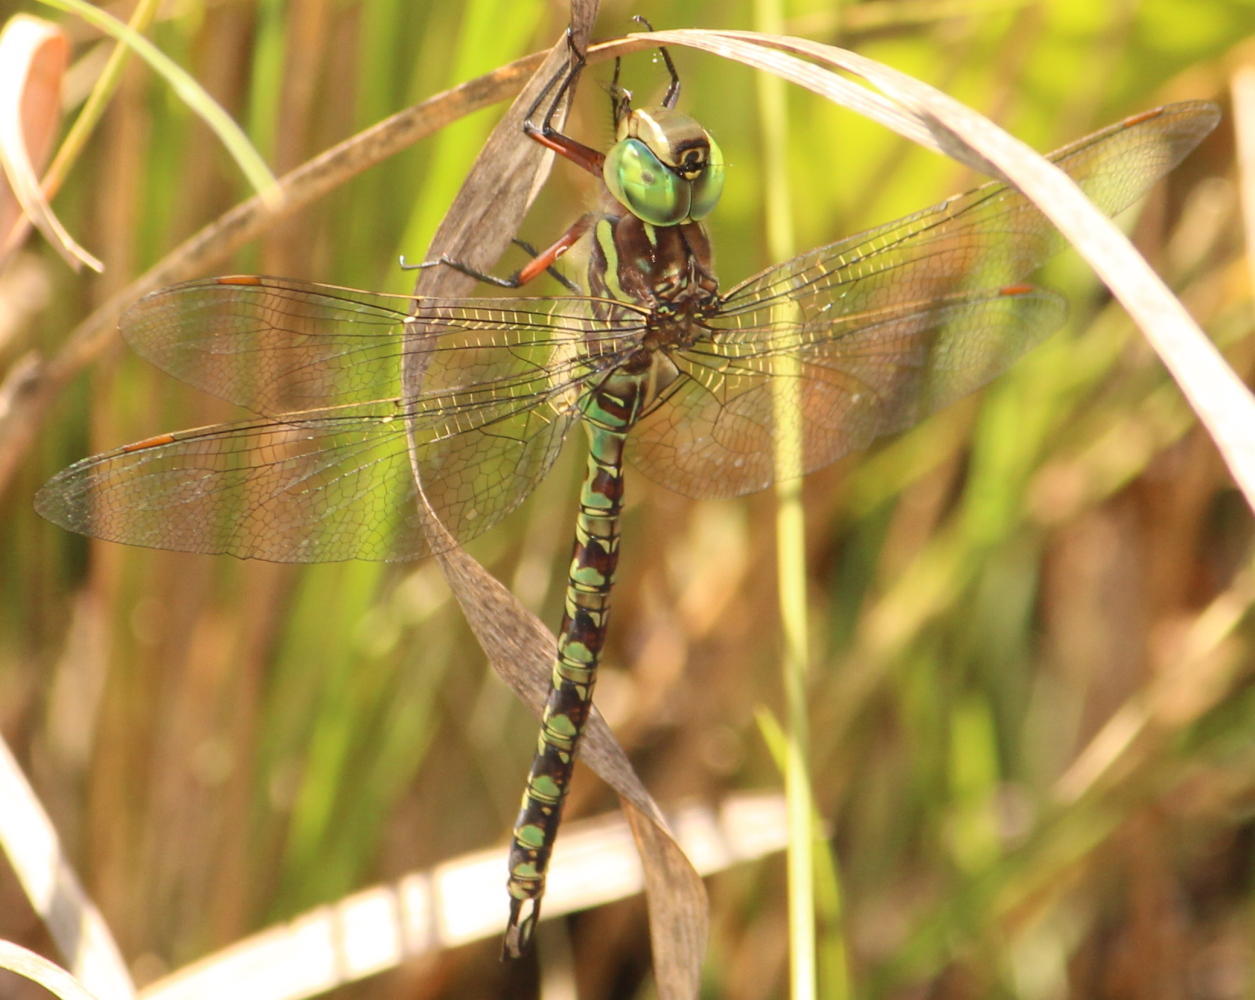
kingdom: Animalia
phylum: Arthropoda
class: Insecta
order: Odonata
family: Aeshnidae
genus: Pinheyschna
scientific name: Pinheyschna subpupillata
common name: Stream hawker
